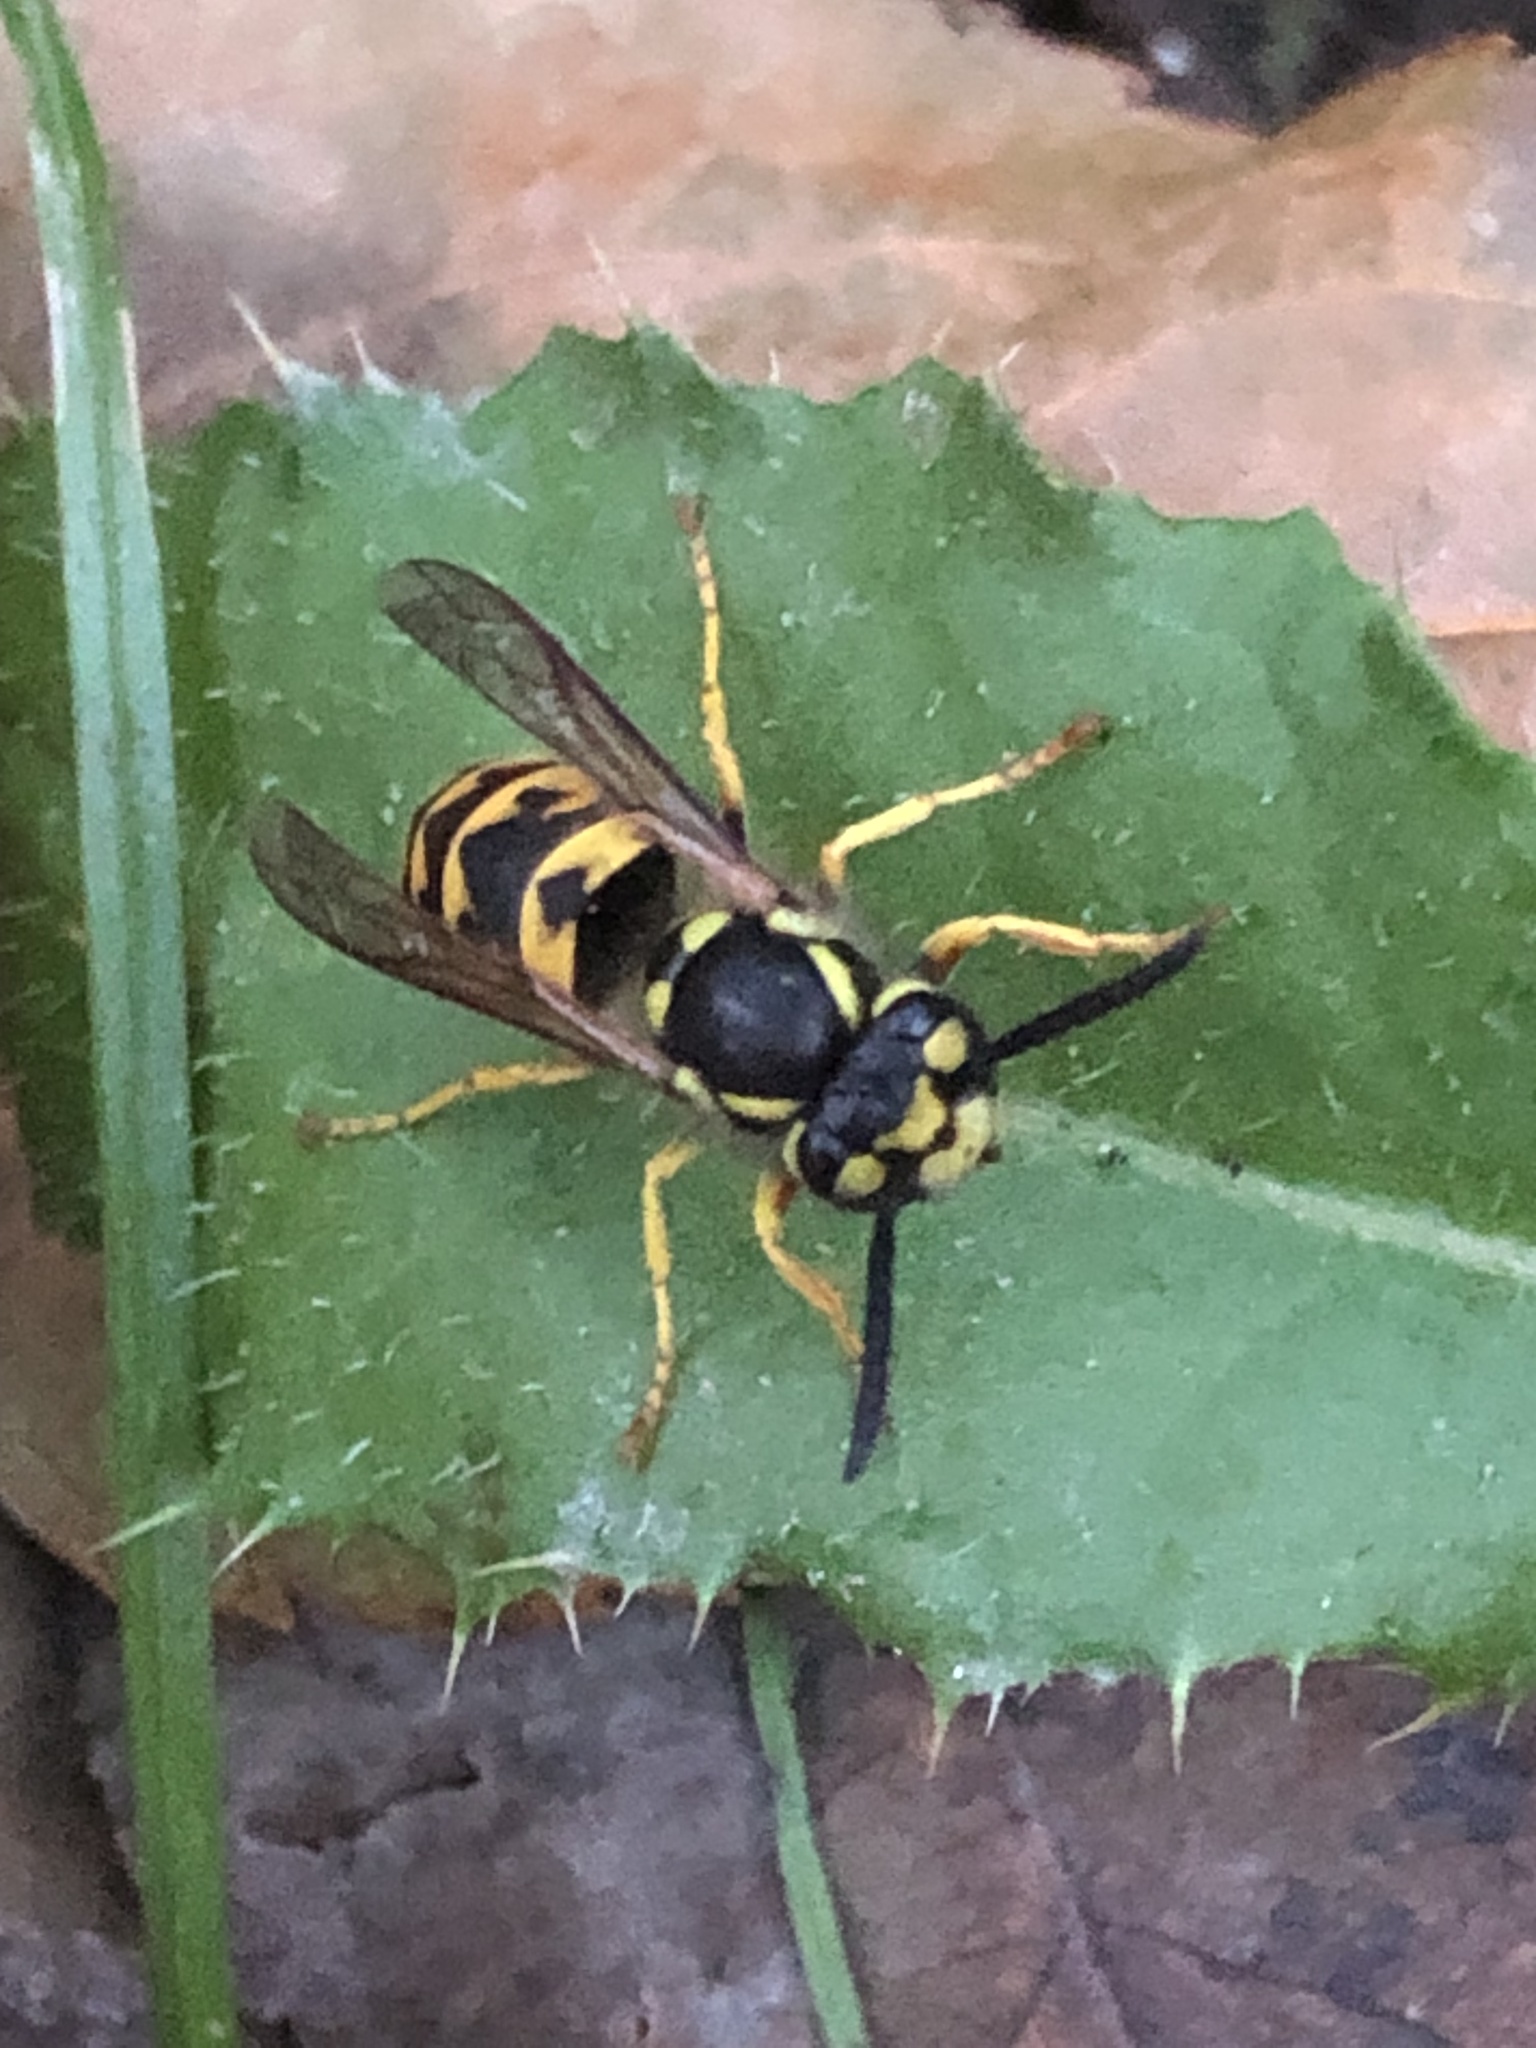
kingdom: Animalia
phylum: Arthropoda
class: Insecta
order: Hymenoptera
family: Vespidae
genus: Vespula
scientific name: Vespula germanica
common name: German wasp
